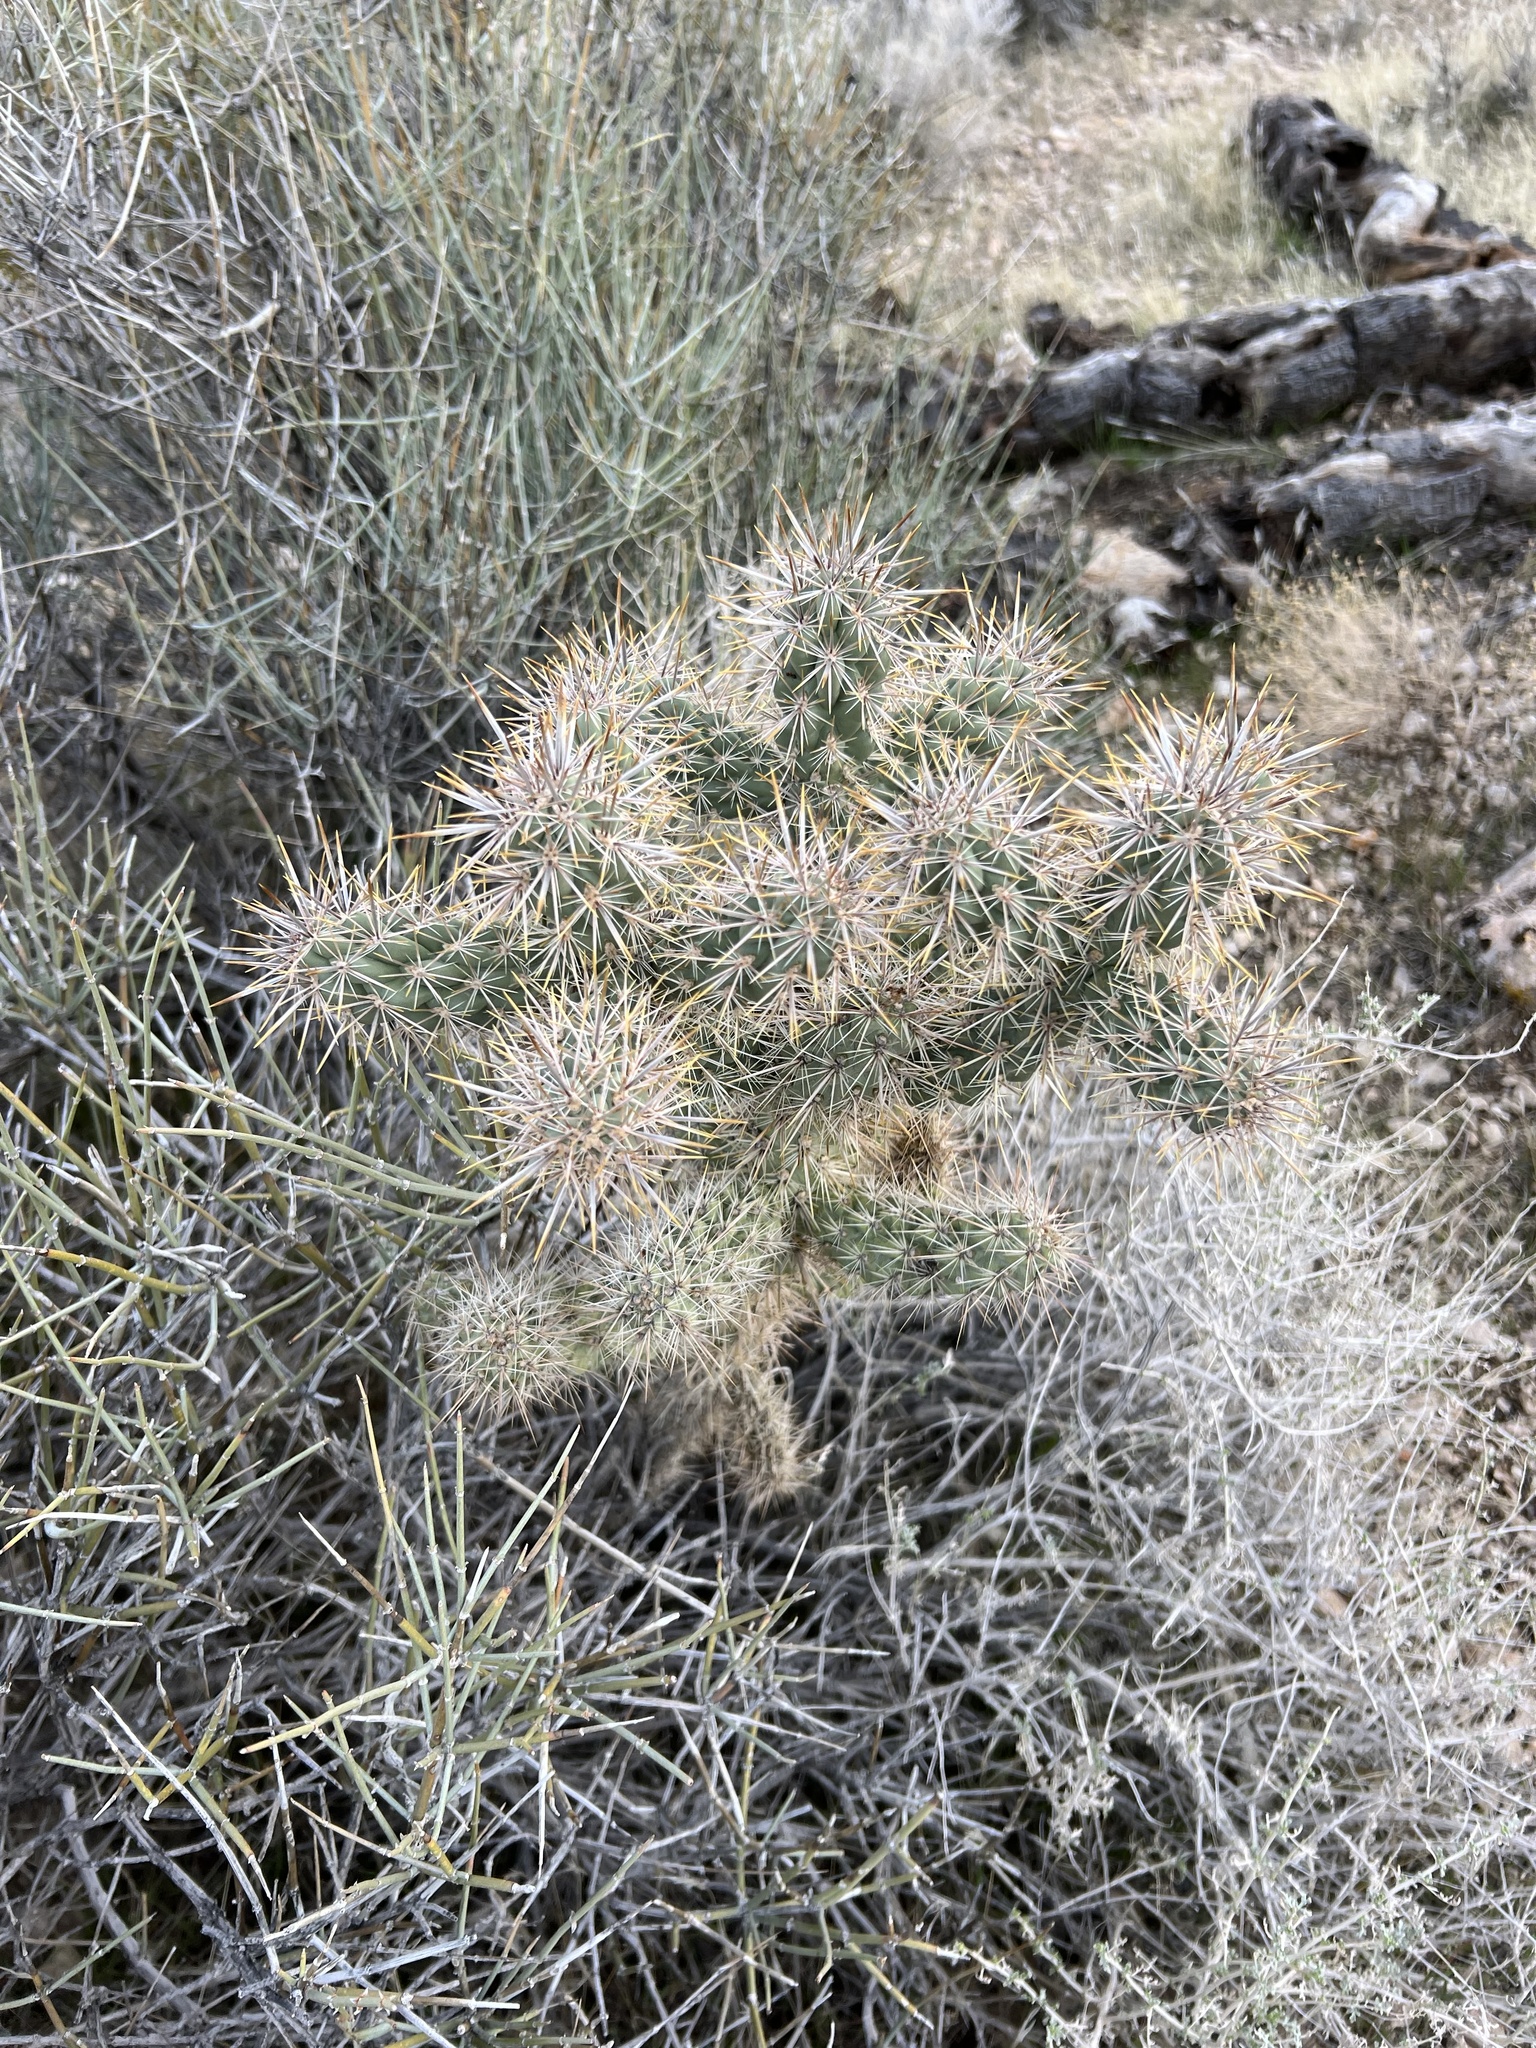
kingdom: Plantae
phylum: Tracheophyta
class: Magnoliopsida
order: Caryophyllales
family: Cactaceae
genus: Cylindropuntia
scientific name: Cylindropuntia echinocarpa
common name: Ground cholla
